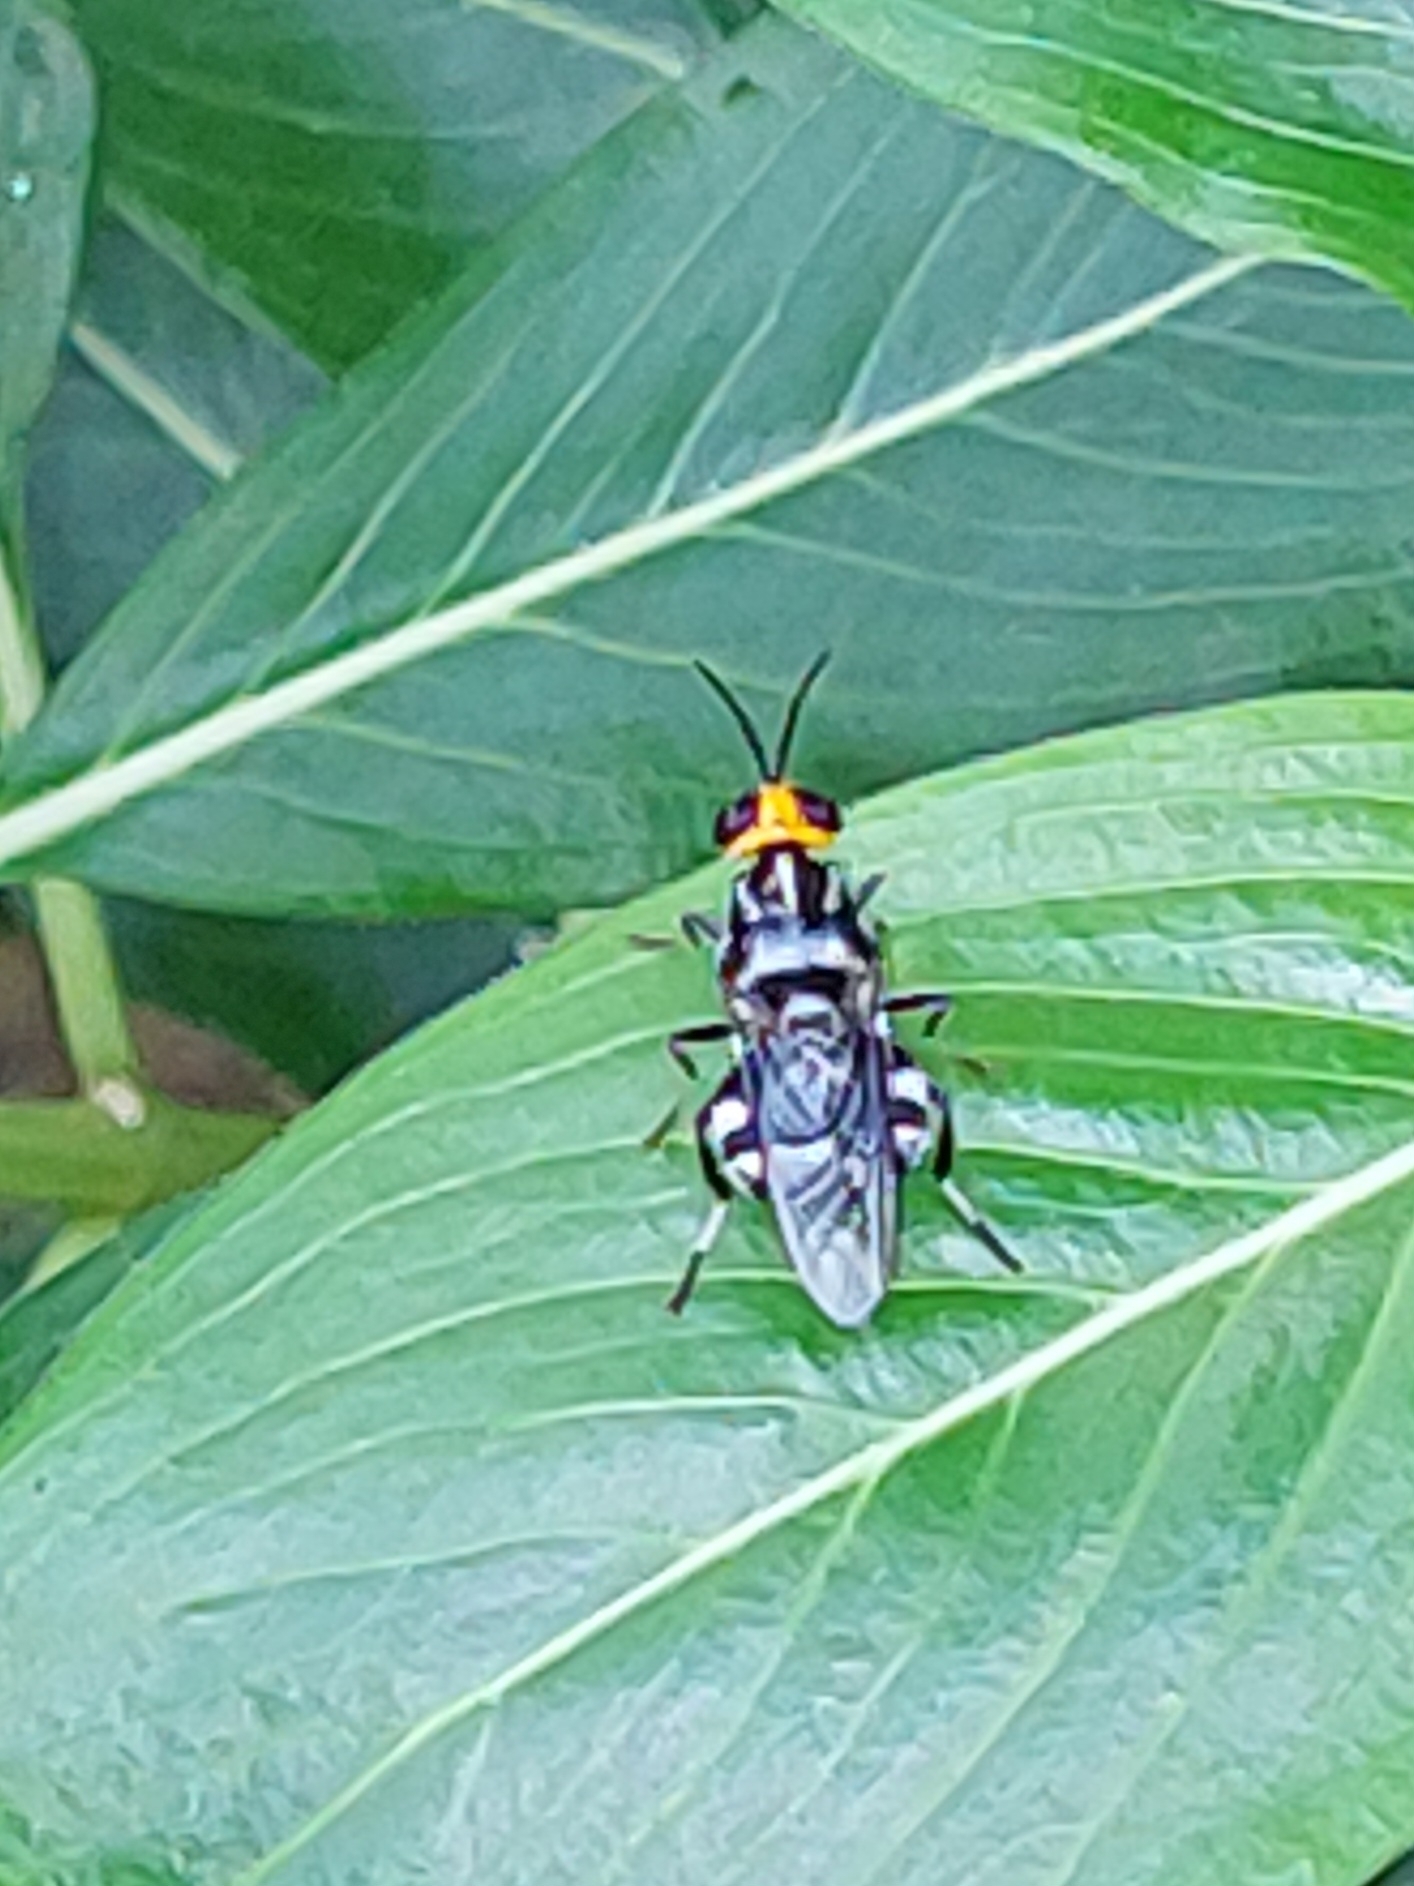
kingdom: Animalia
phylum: Arthropoda
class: Insecta
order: Diptera
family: Stratiomyidae
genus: Cyphomyia
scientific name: Cyphomyia wiedemanni
